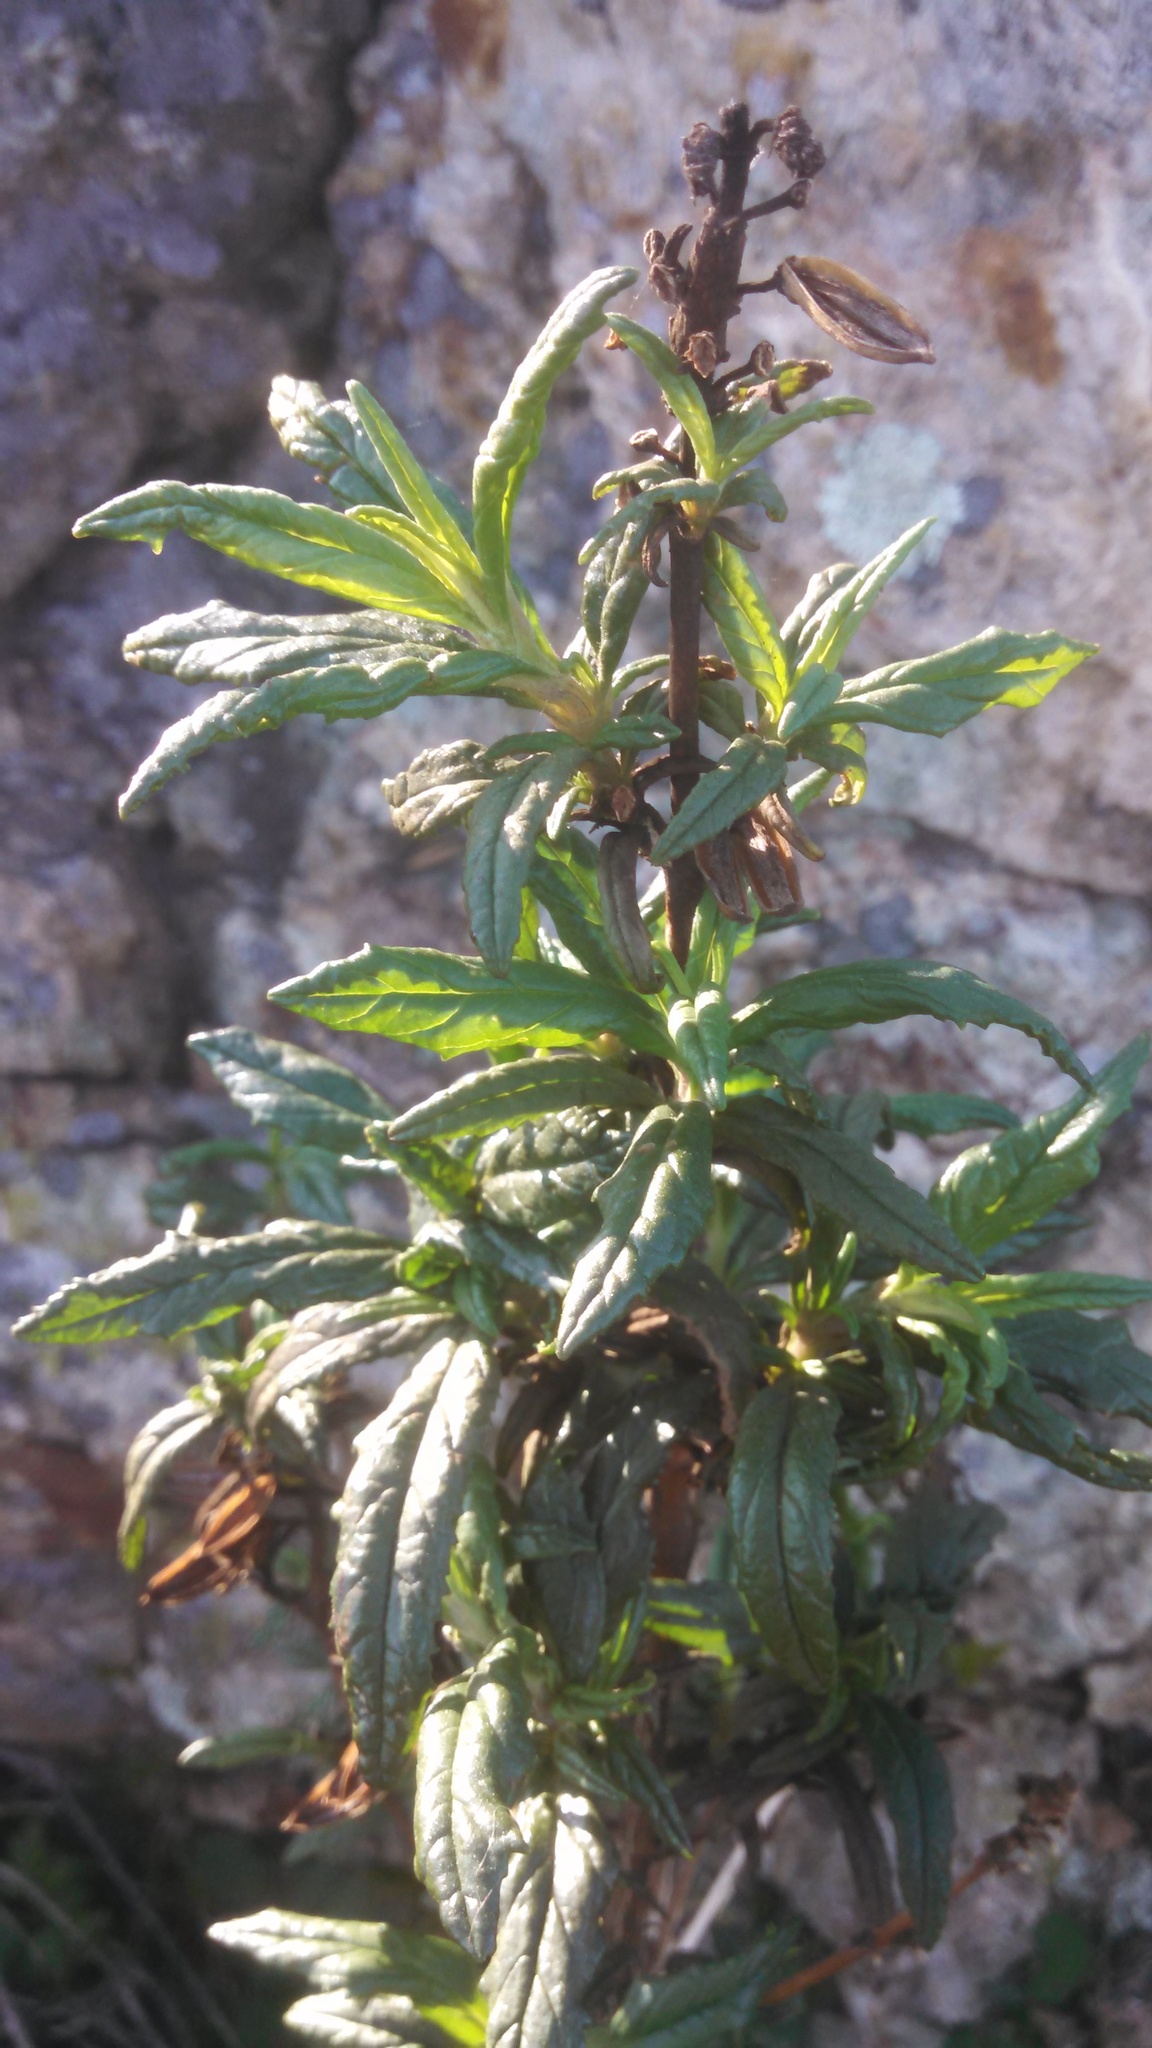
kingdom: Plantae
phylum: Tracheophyta
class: Magnoliopsida
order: Lamiales
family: Phrymaceae
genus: Diplacus
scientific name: Diplacus aurantiacus
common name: Bush monkey-flower
